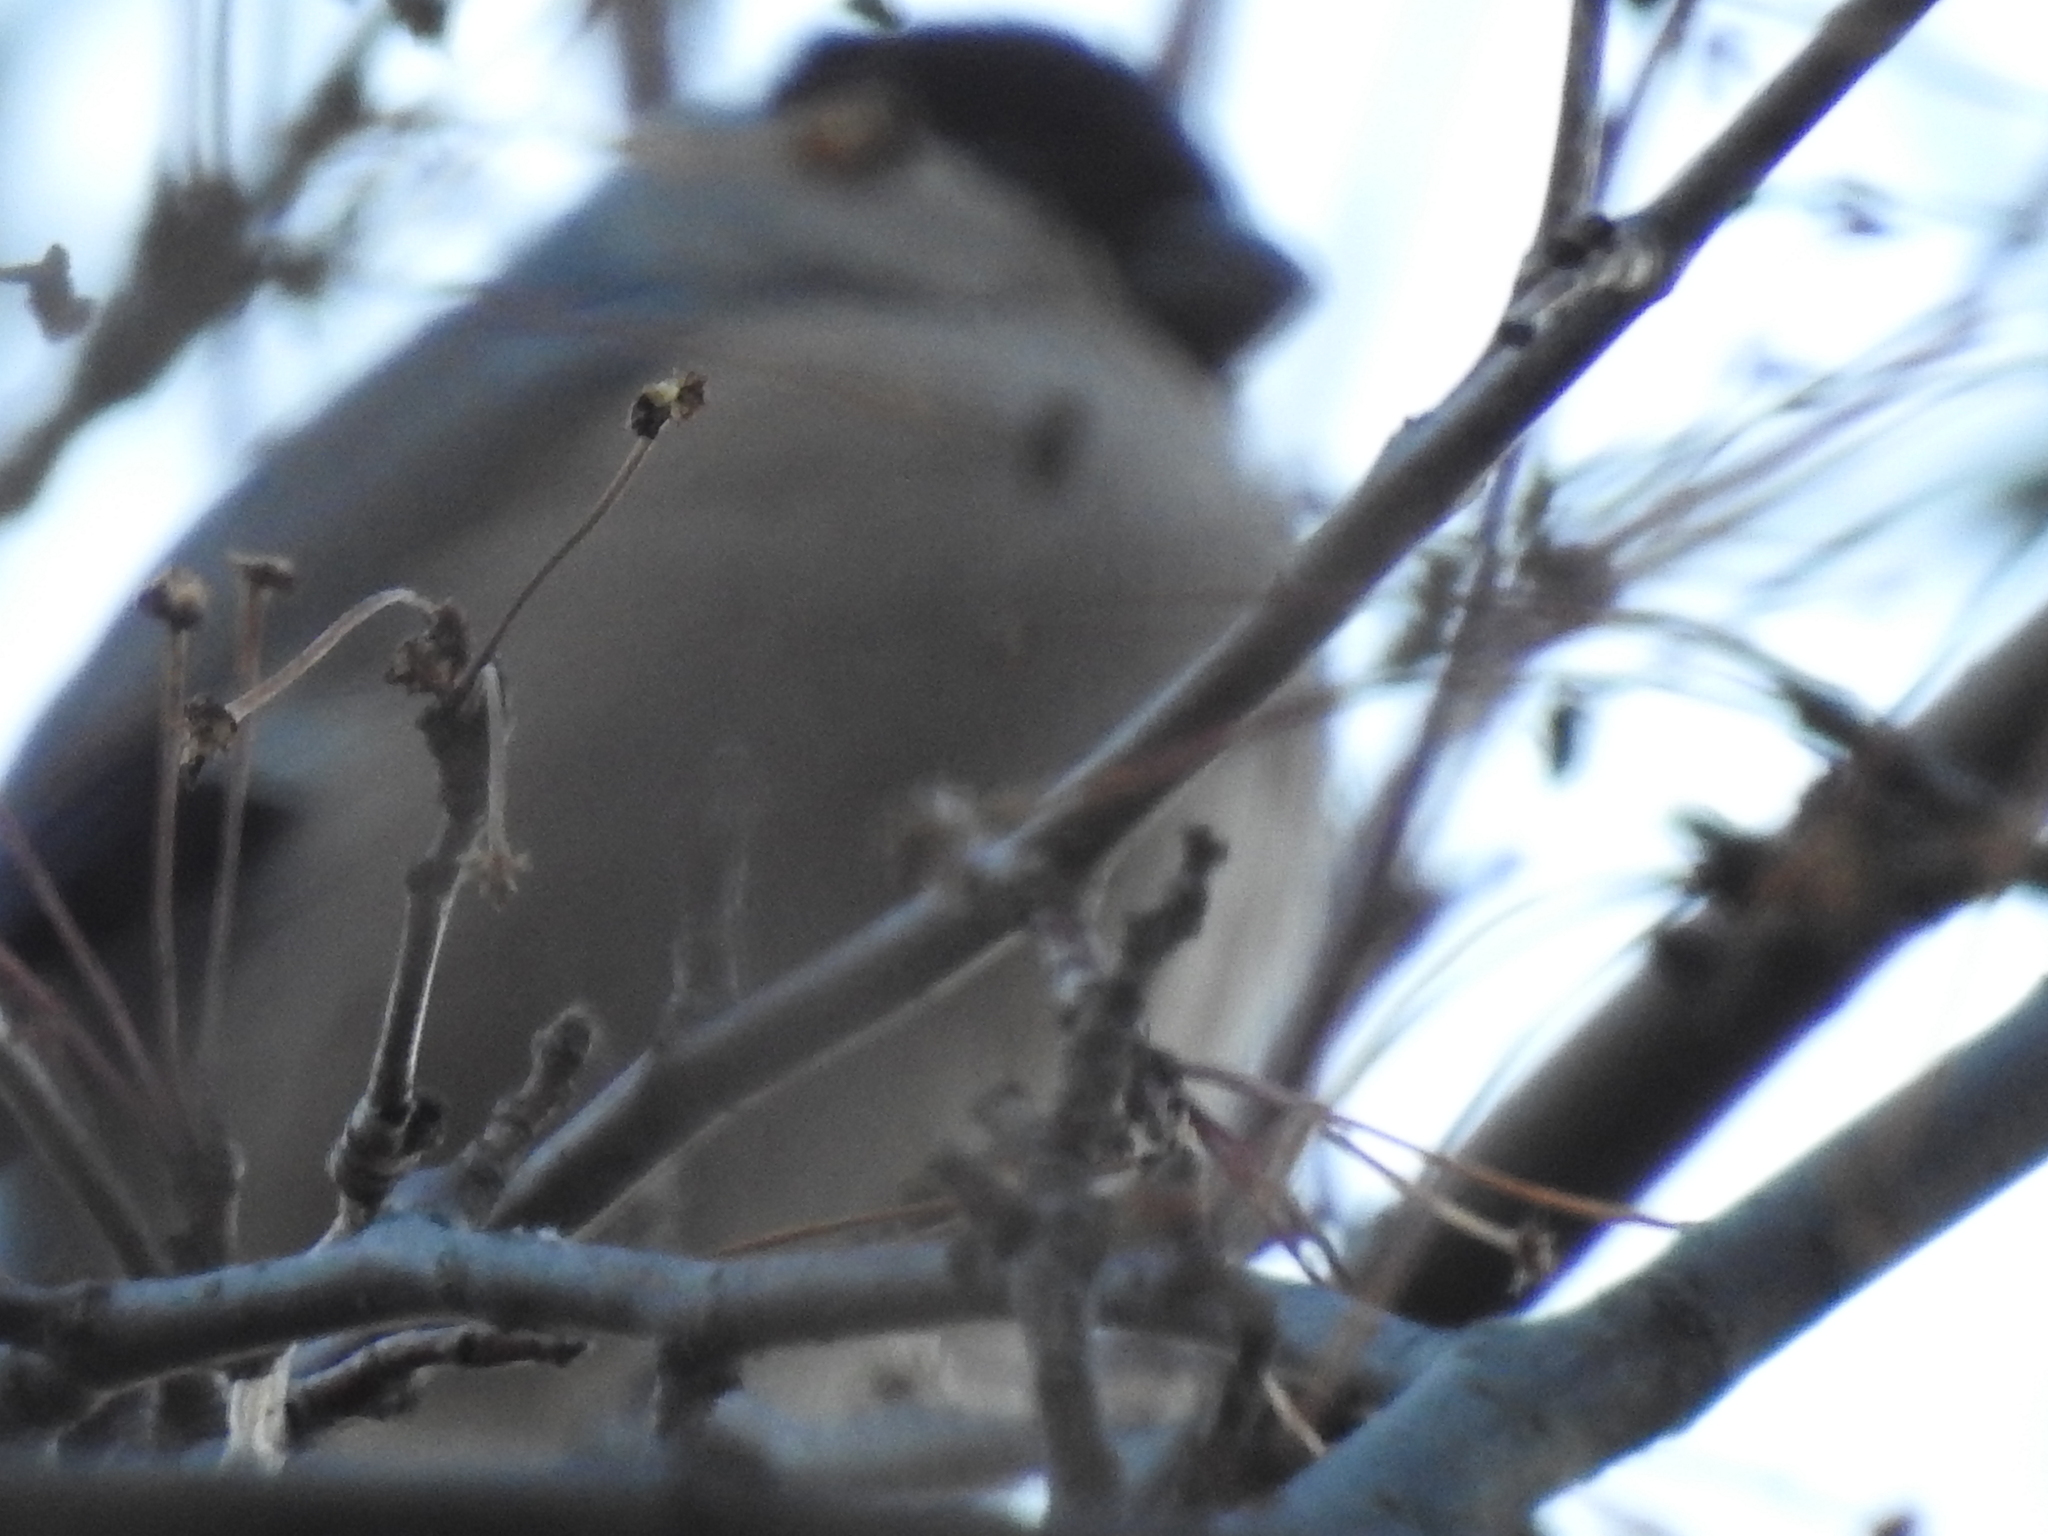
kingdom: Animalia
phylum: Chordata
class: Aves
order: Passeriformes
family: Fringillidae
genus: Pyrrhula
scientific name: Pyrrhula pyrrhula
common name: Eurasian bullfinch
